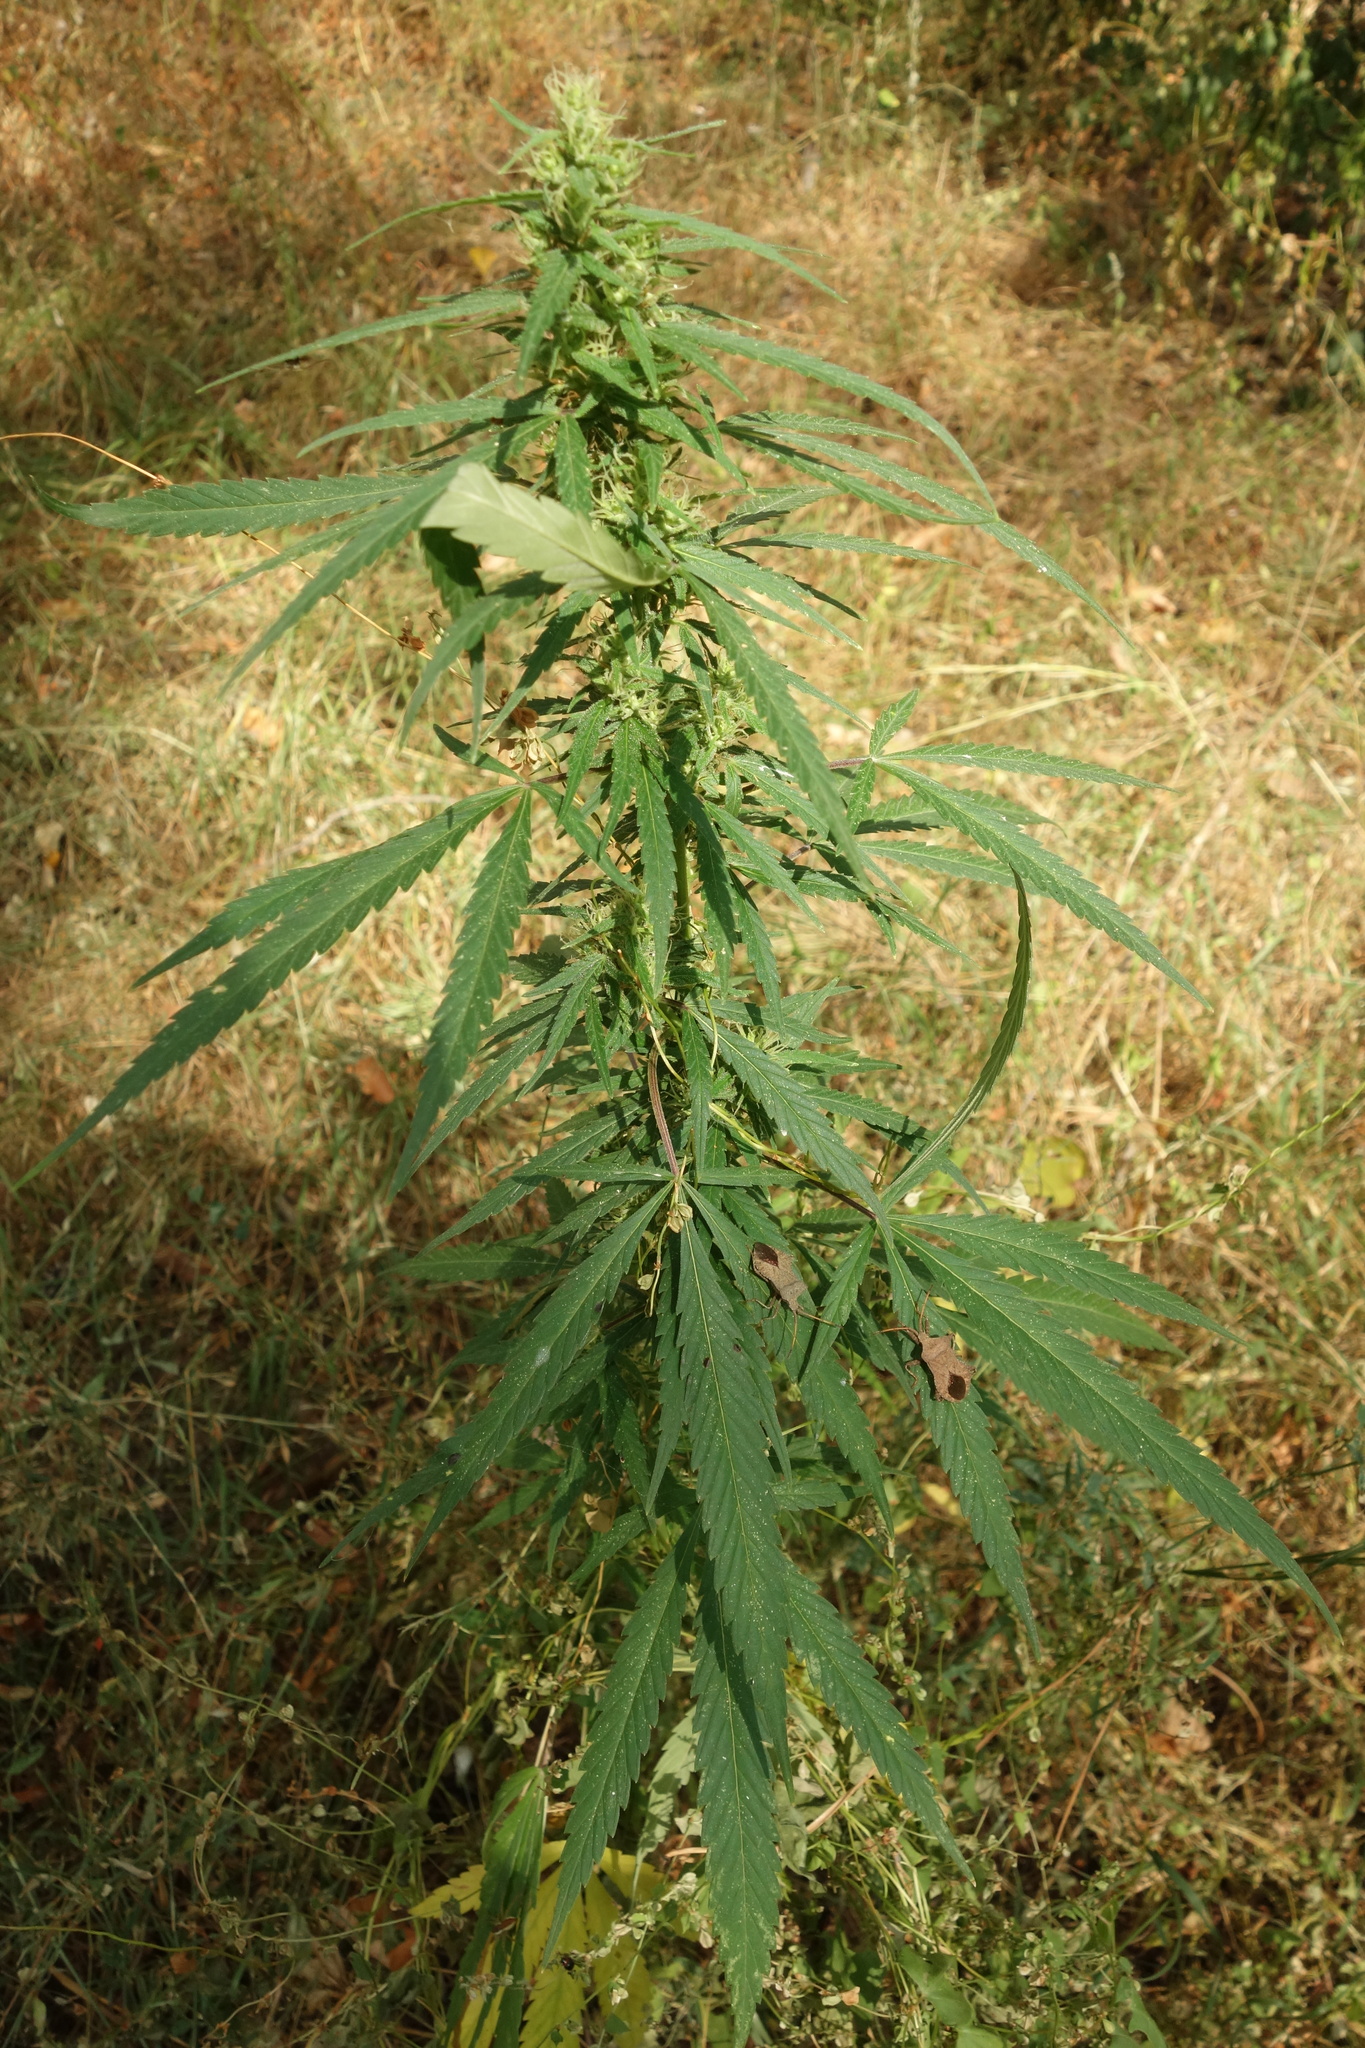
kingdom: Plantae
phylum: Tracheophyta
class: Magnoliopsida
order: Rosales
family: Cannabaceae
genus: Cannabis
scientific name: Cannabis sativa
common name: Hemp
